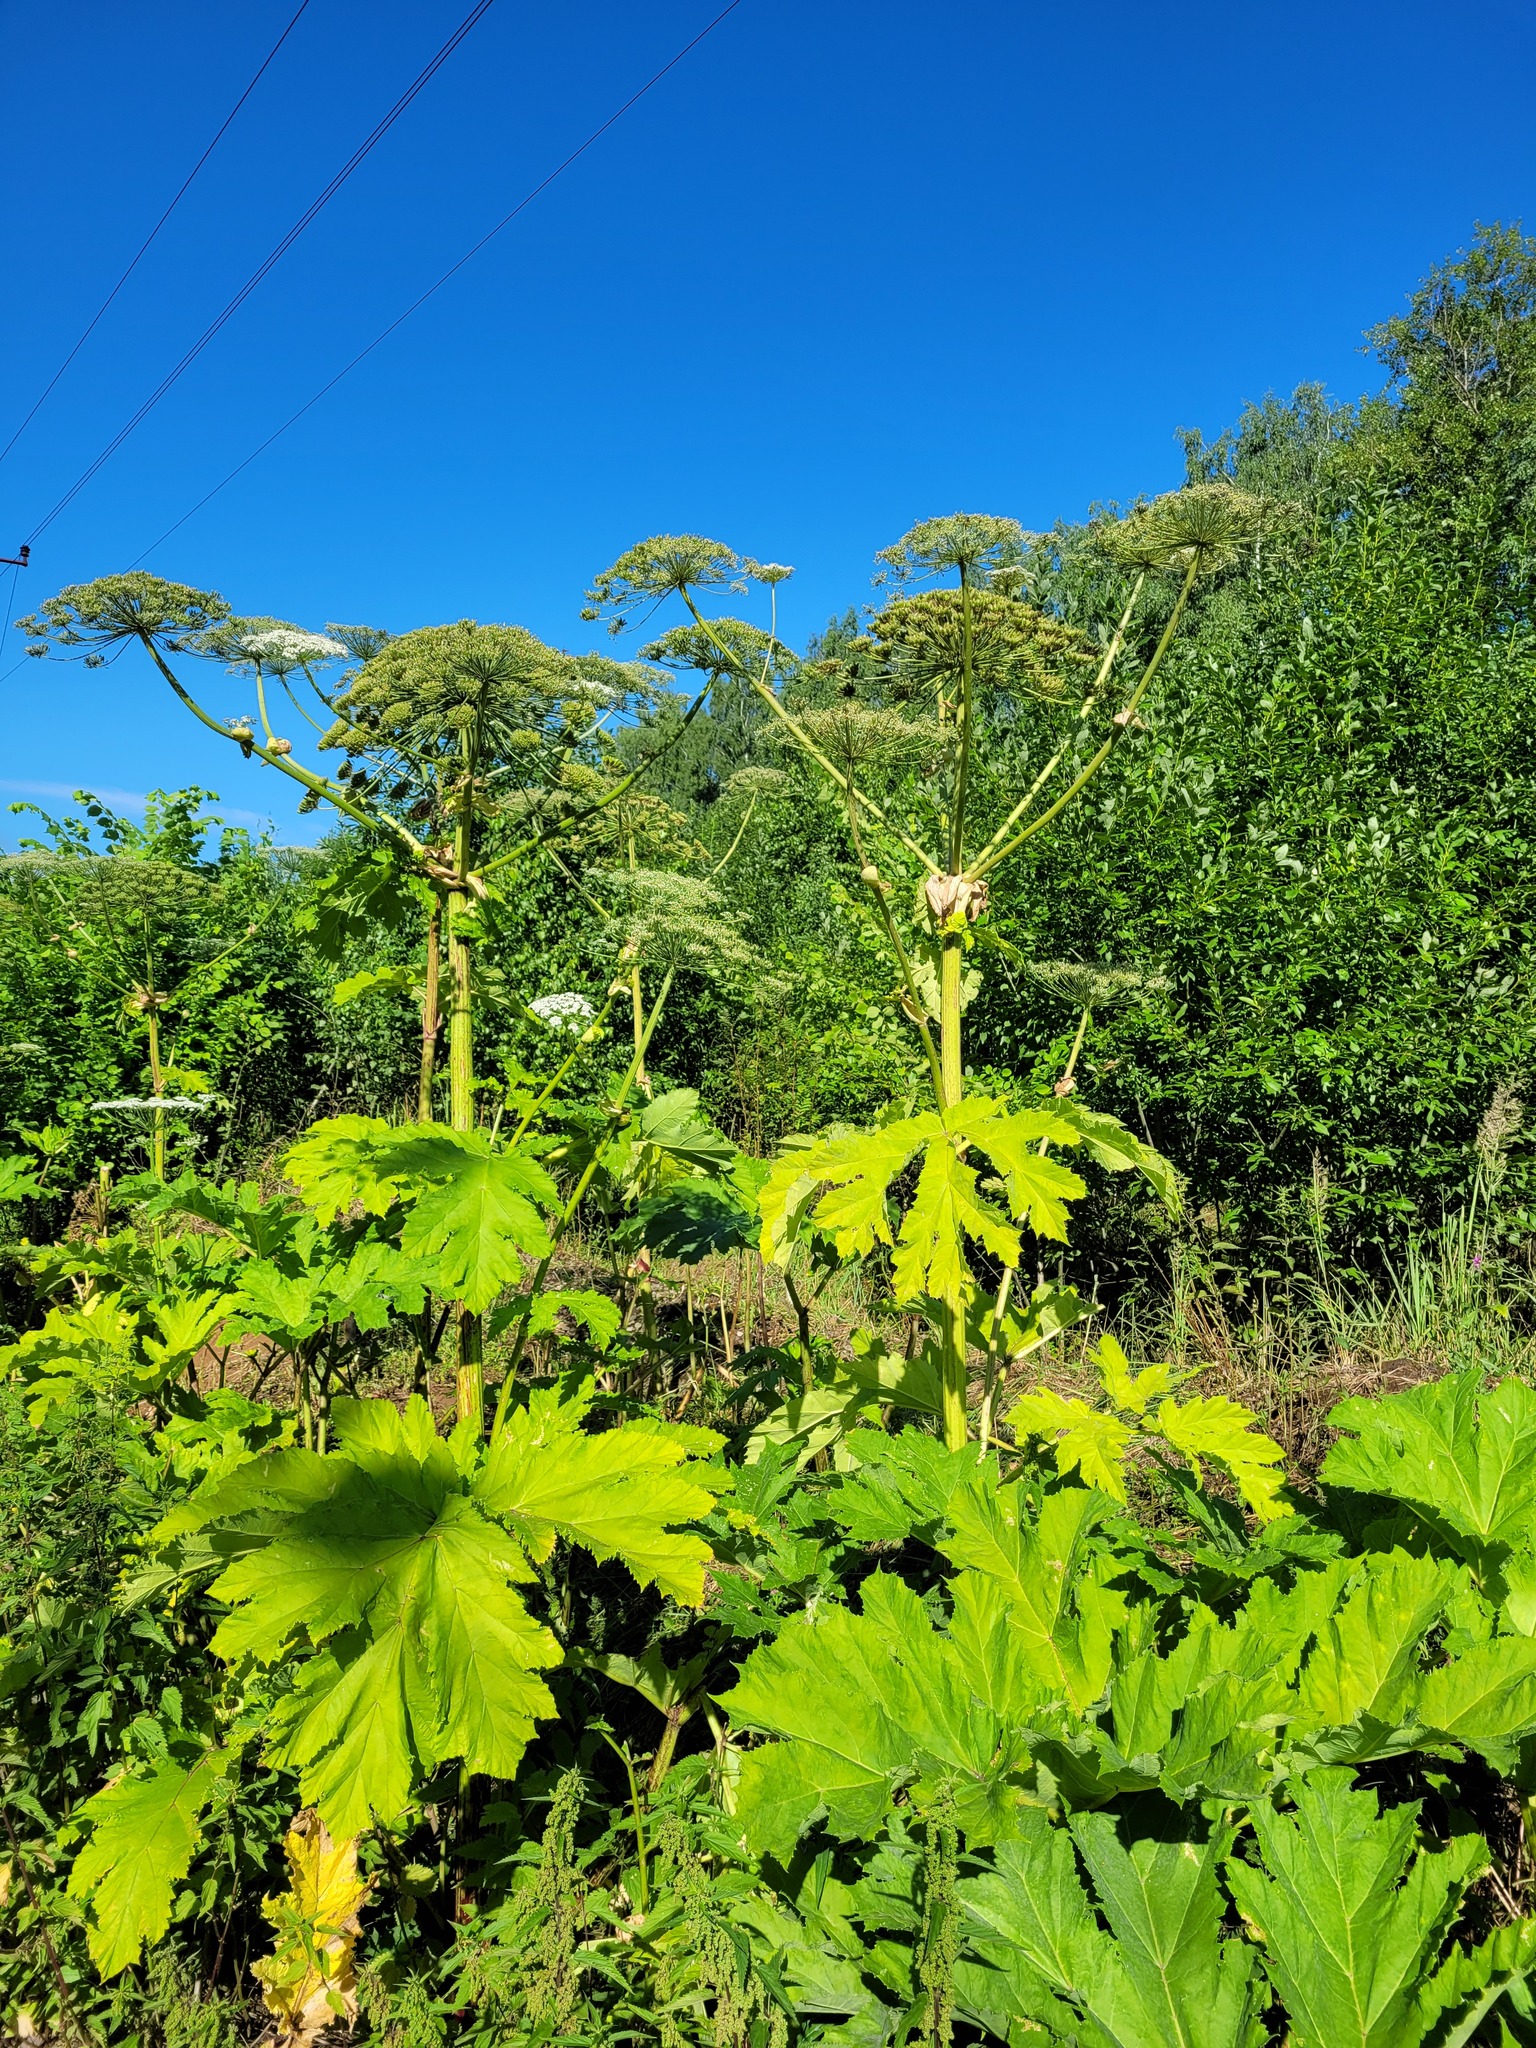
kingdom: Plantae
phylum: Tracheophyta
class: Magnoliopsida
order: Apiales
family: Apiaceae
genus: Heracleum
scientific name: Heracleum sosnowskyi
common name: Sosnowsky's hogweed
